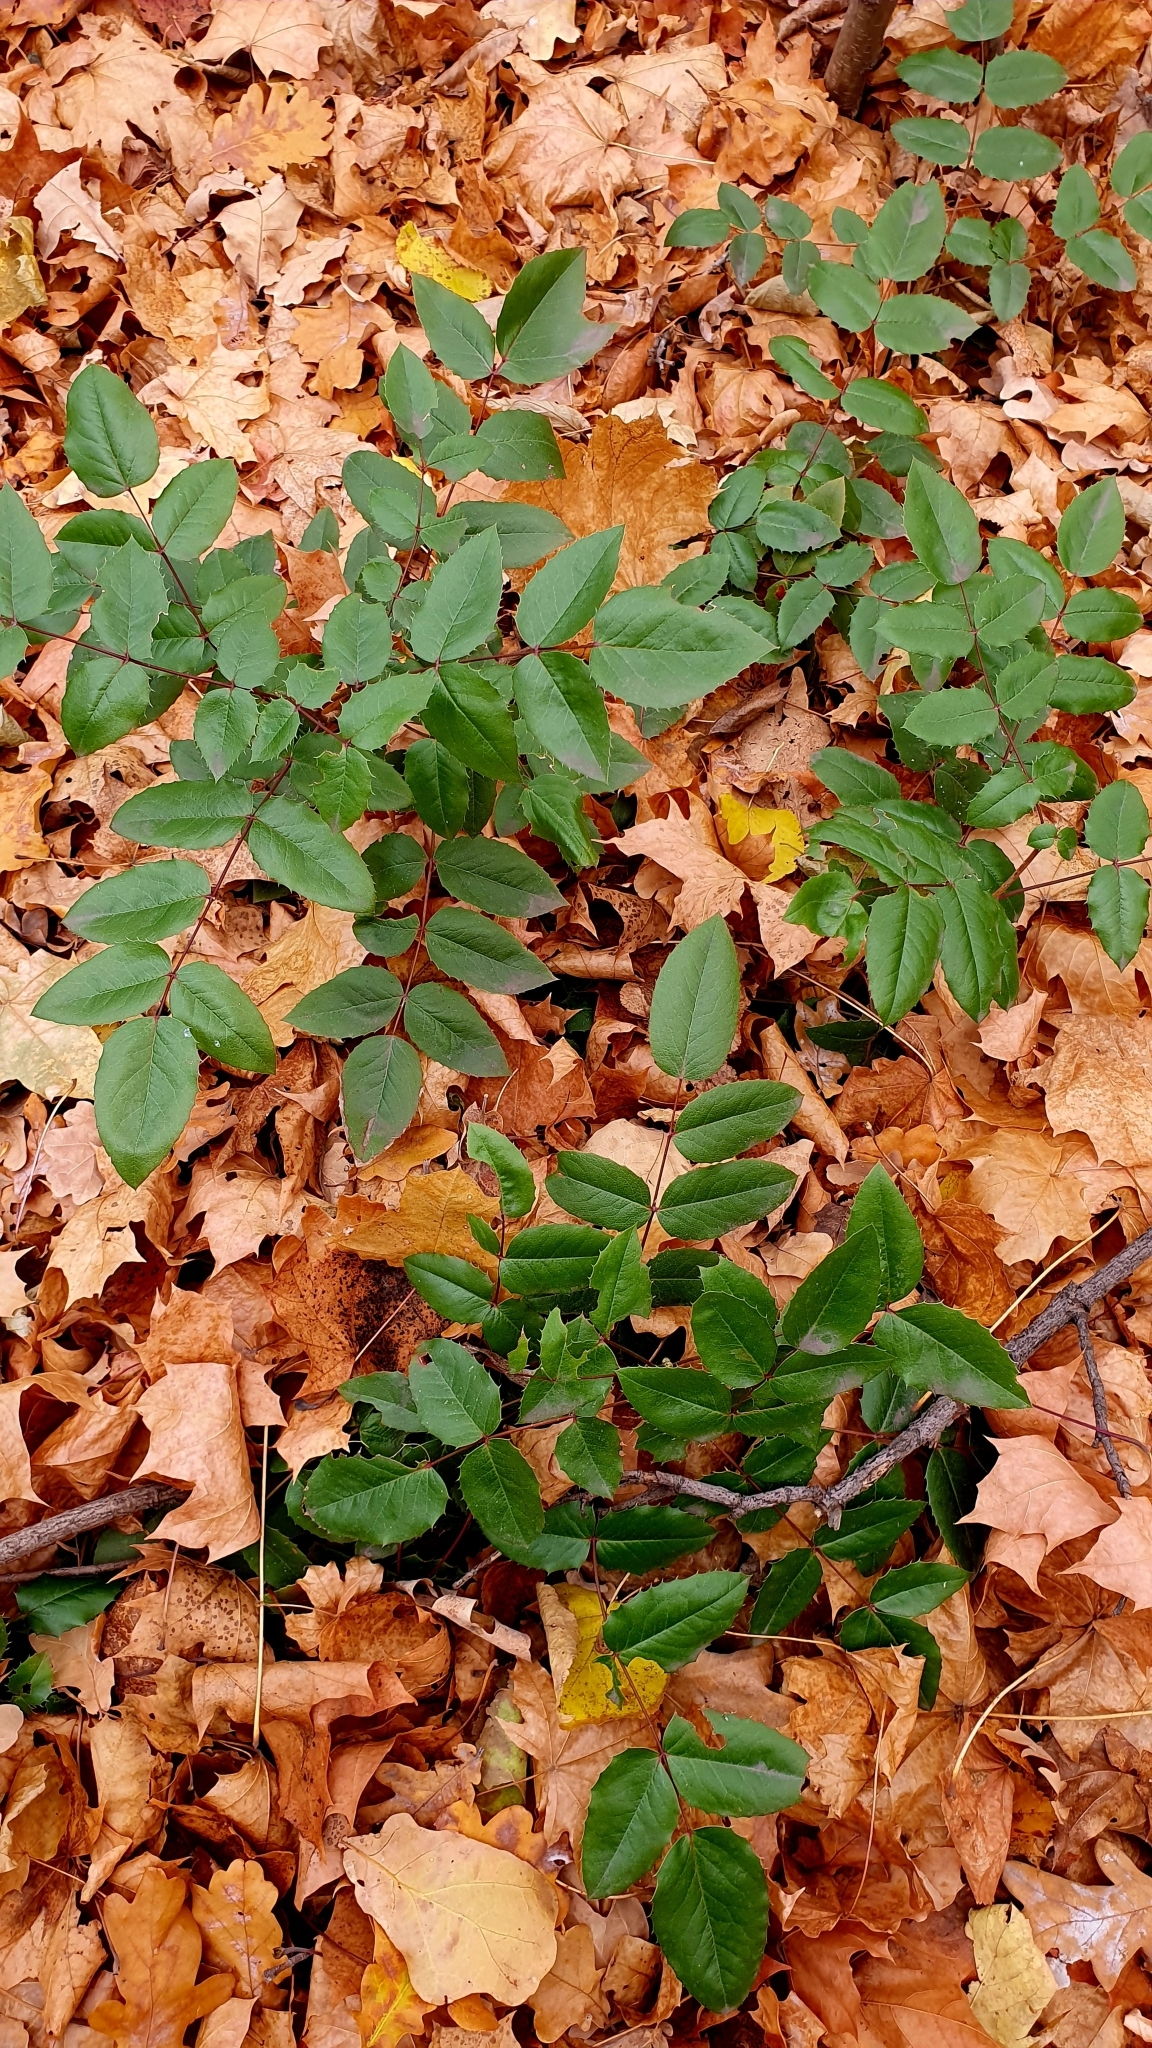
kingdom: Plantae
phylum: Tracheophyta
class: Magnoliopsida
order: Ranunculales
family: Berberidaceae
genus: Mahonia
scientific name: Mahonia aquifolium
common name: Oregon-grape
